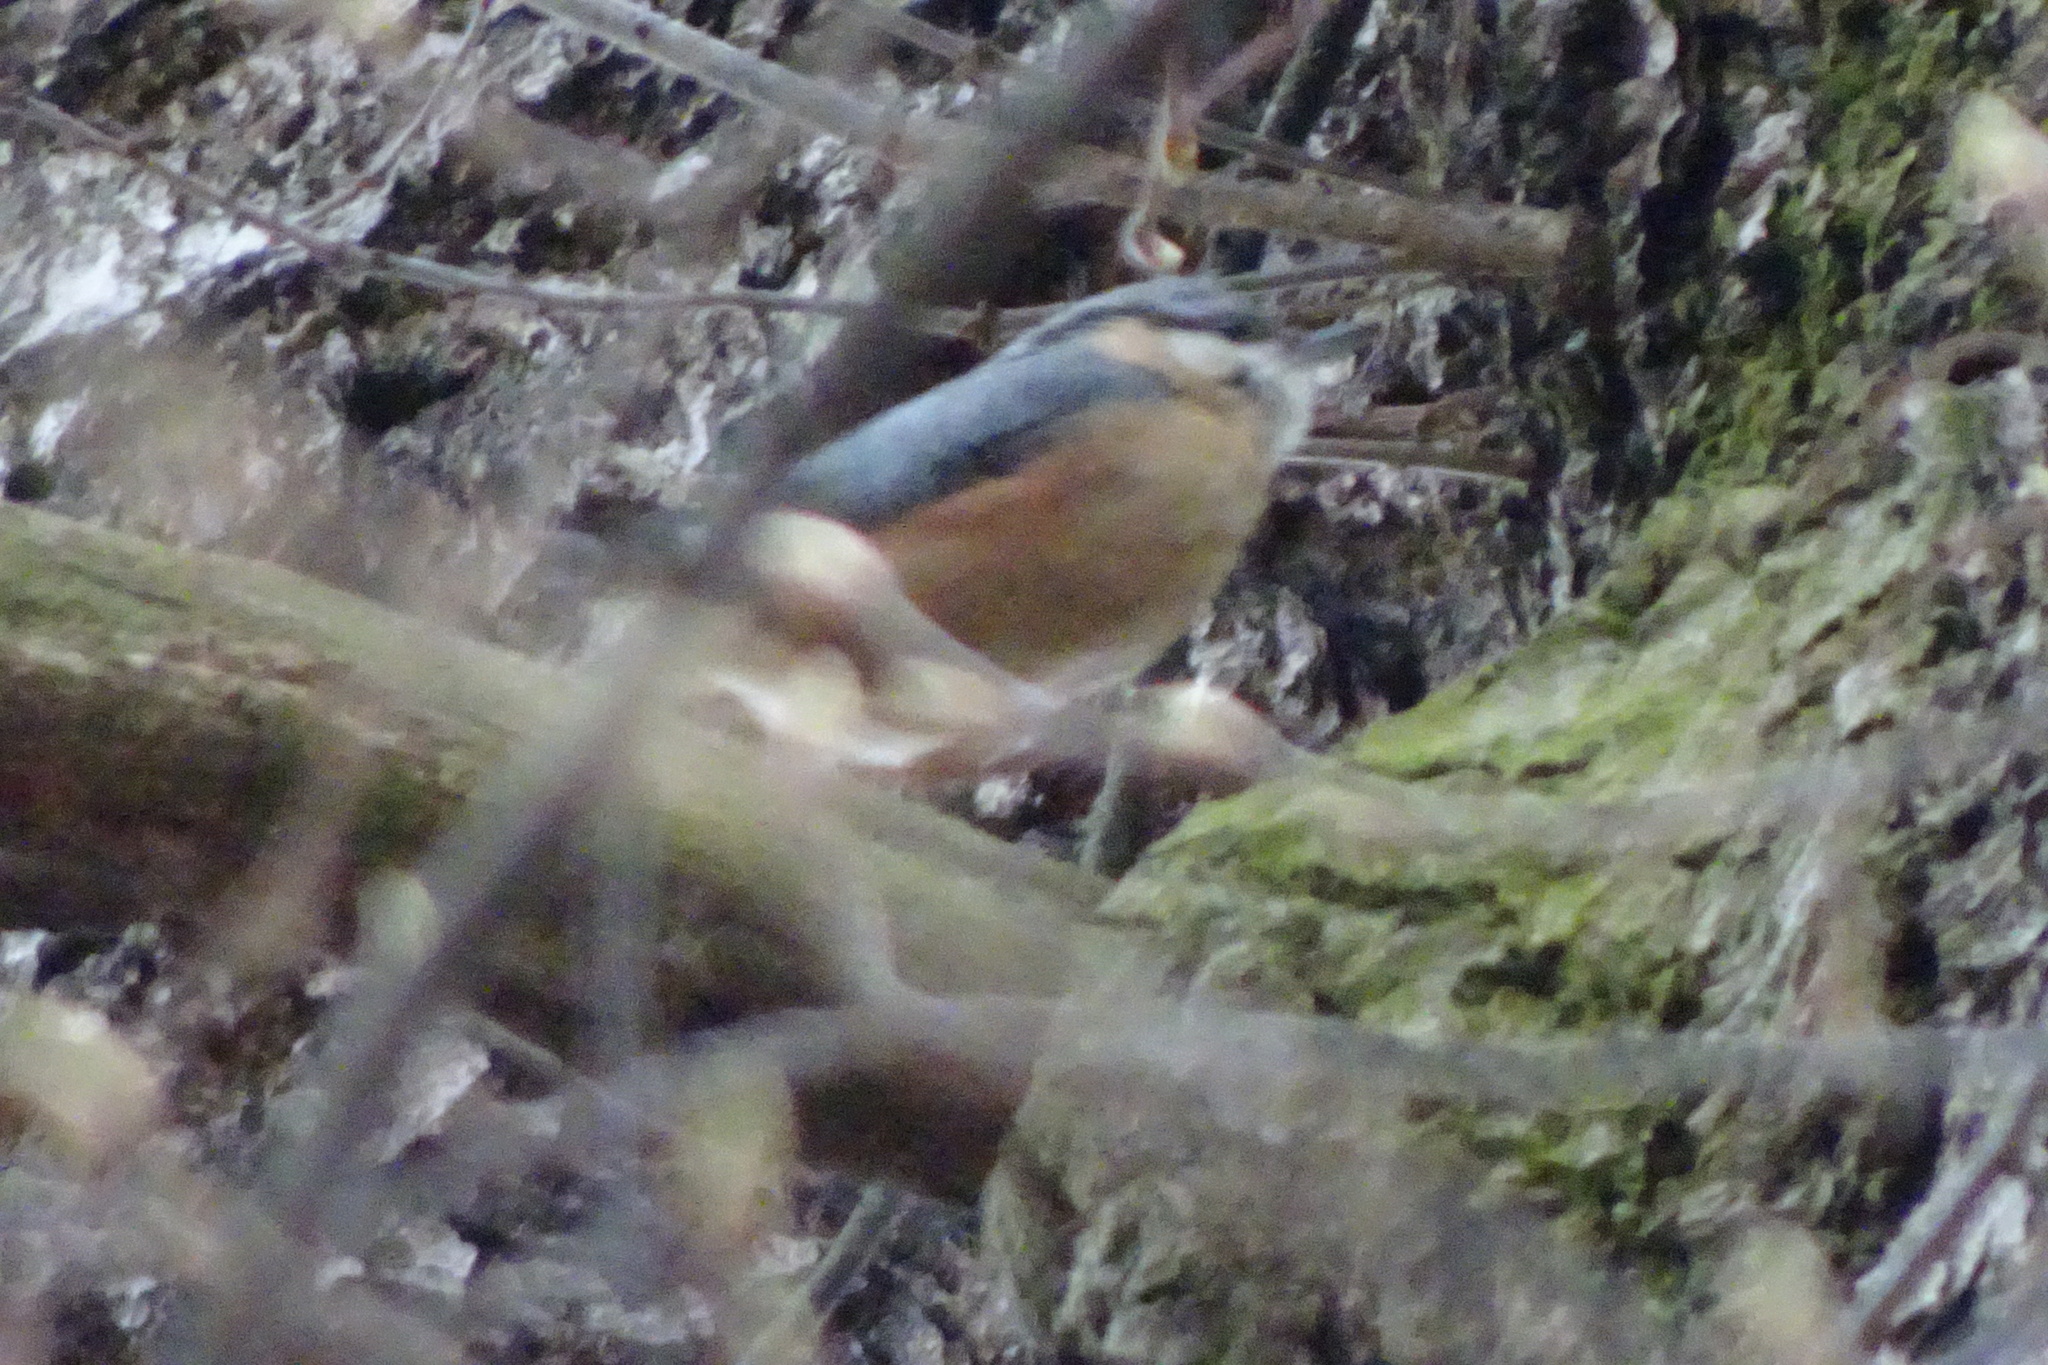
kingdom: Animalia
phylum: Chordata
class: Aves
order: Passeriformes
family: Sittidae
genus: Sitta
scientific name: Sitta europaea
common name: Eurasian nuthatch
